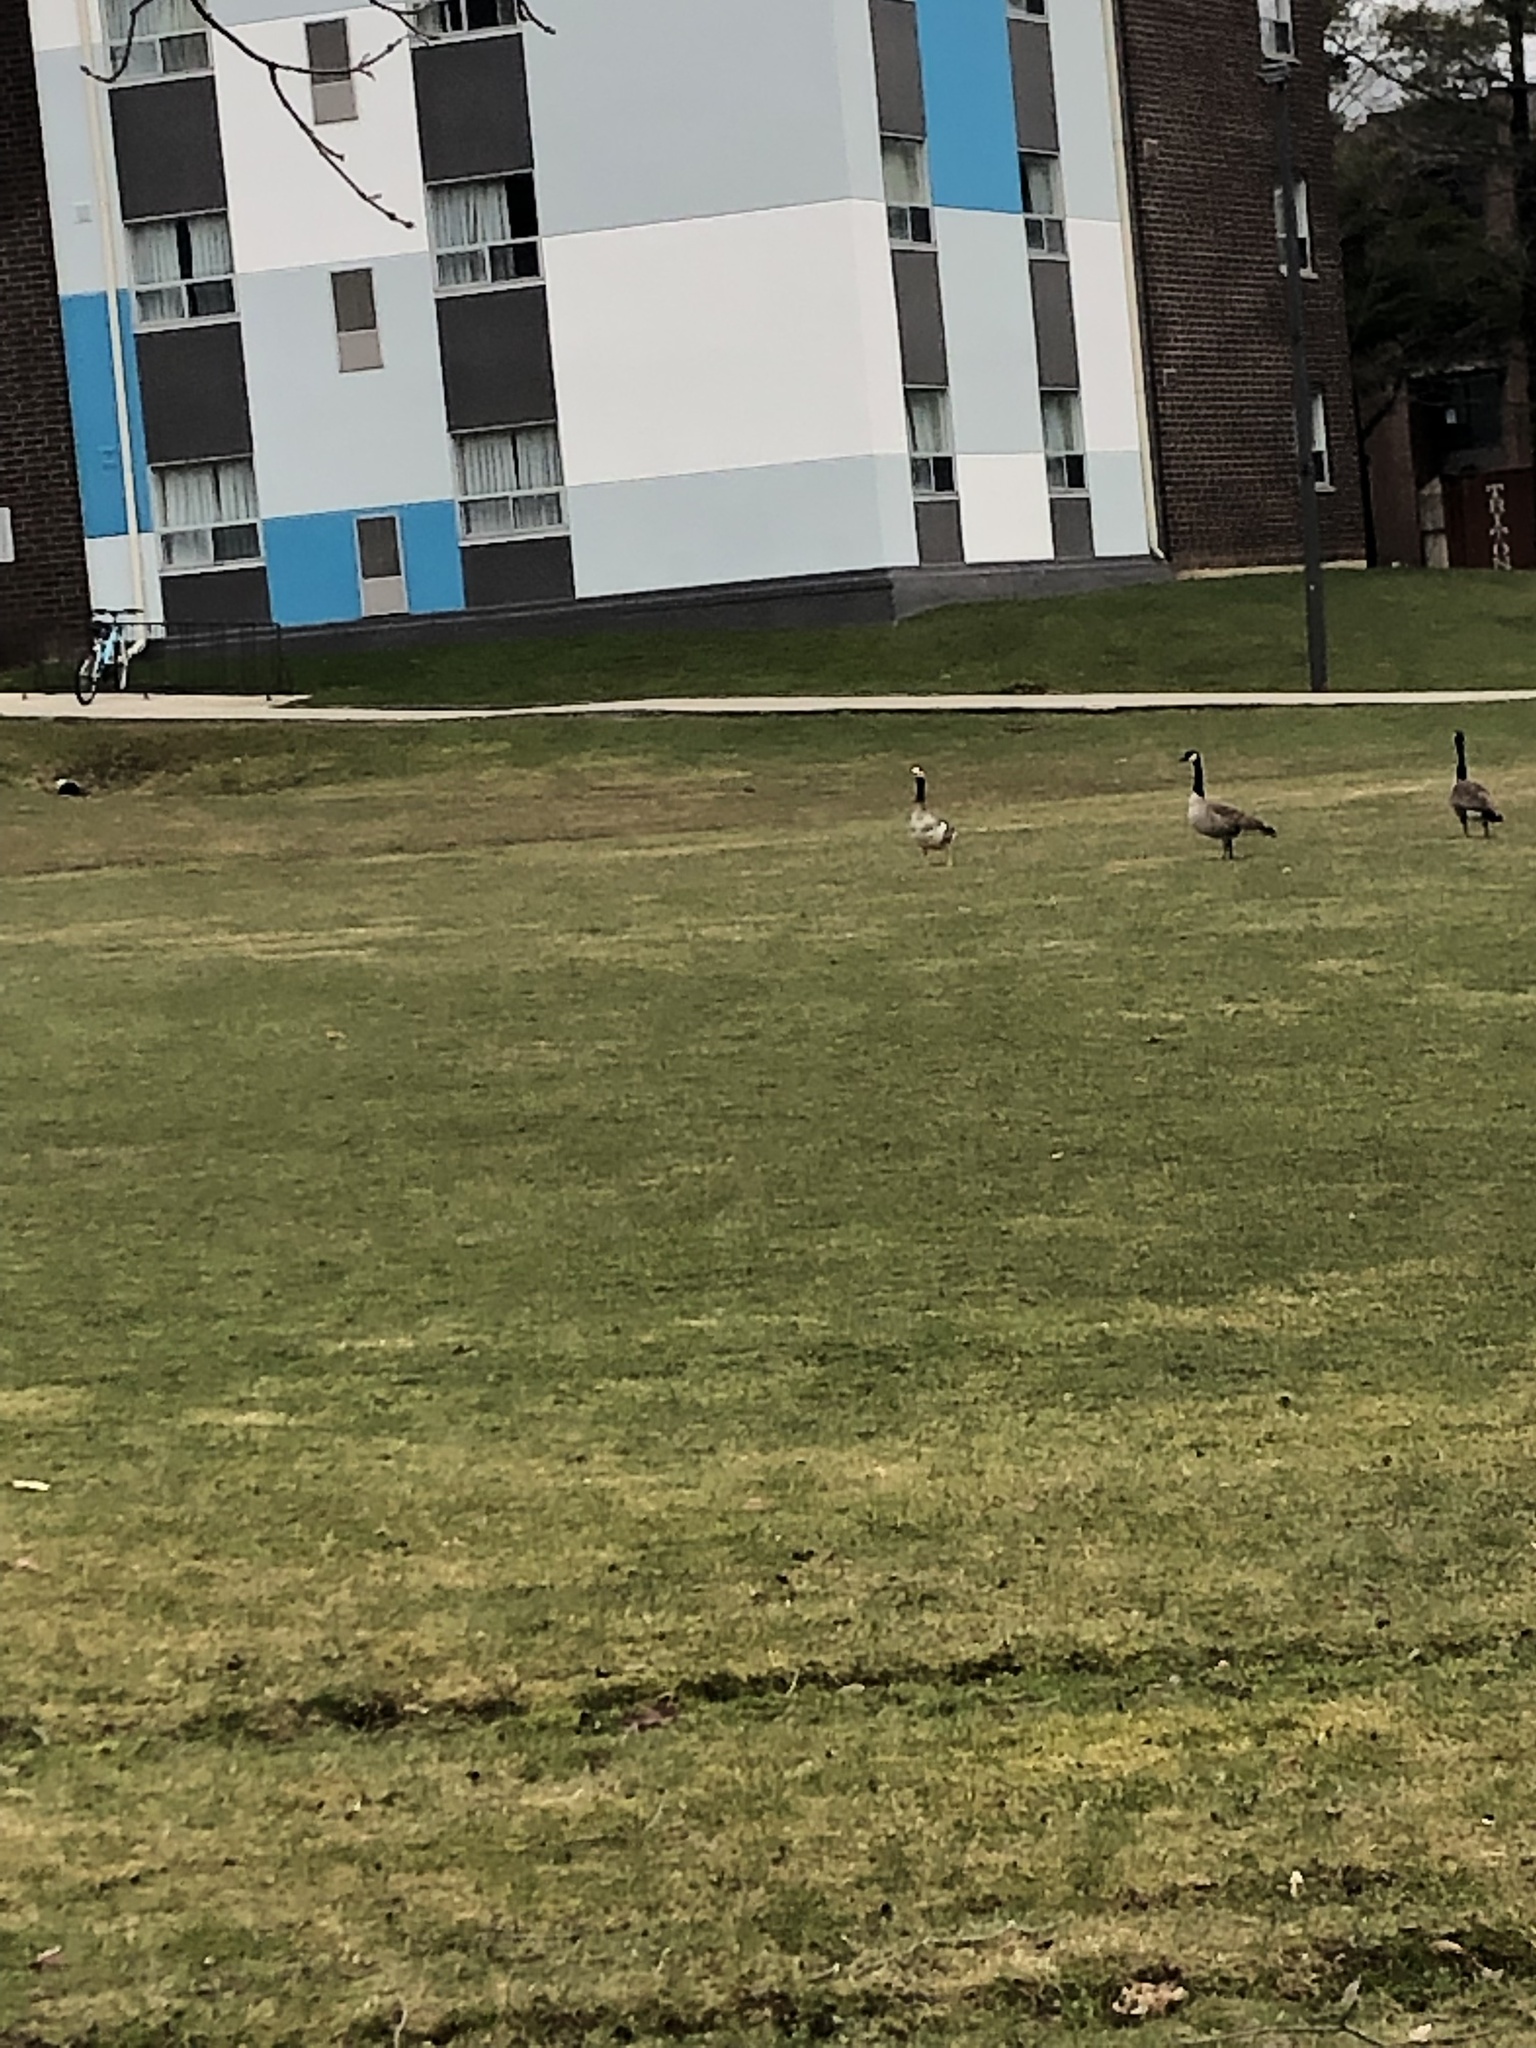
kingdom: Animalia
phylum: Chordata
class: Aves
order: Anseriformes
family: Anatidae
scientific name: Anatidae
